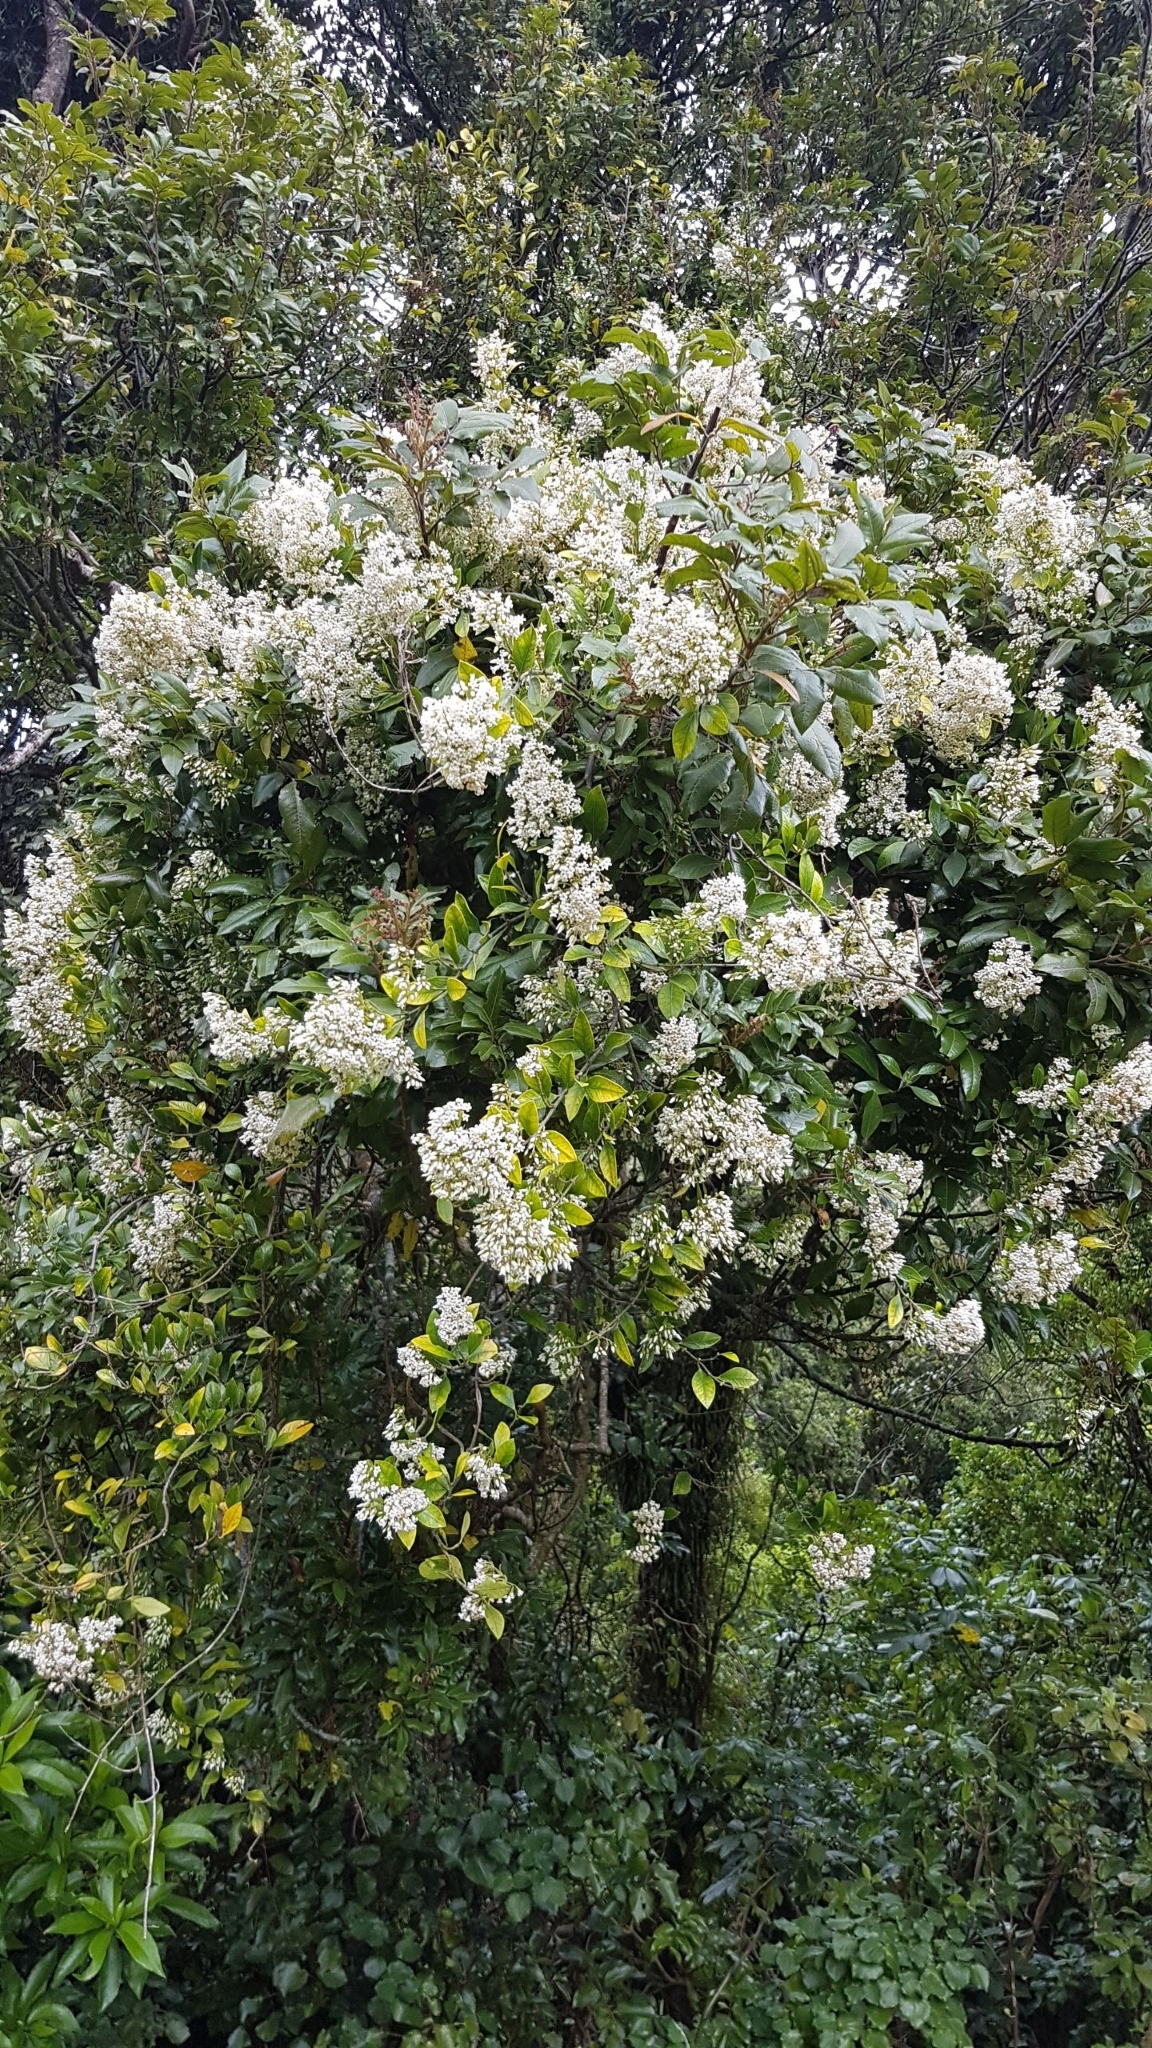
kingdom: Plantae
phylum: Tracheophyta
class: Magnoliopsida
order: Gentianales
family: Apocynaceae
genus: Parsonsia
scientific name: Parsonsia heterophylla
